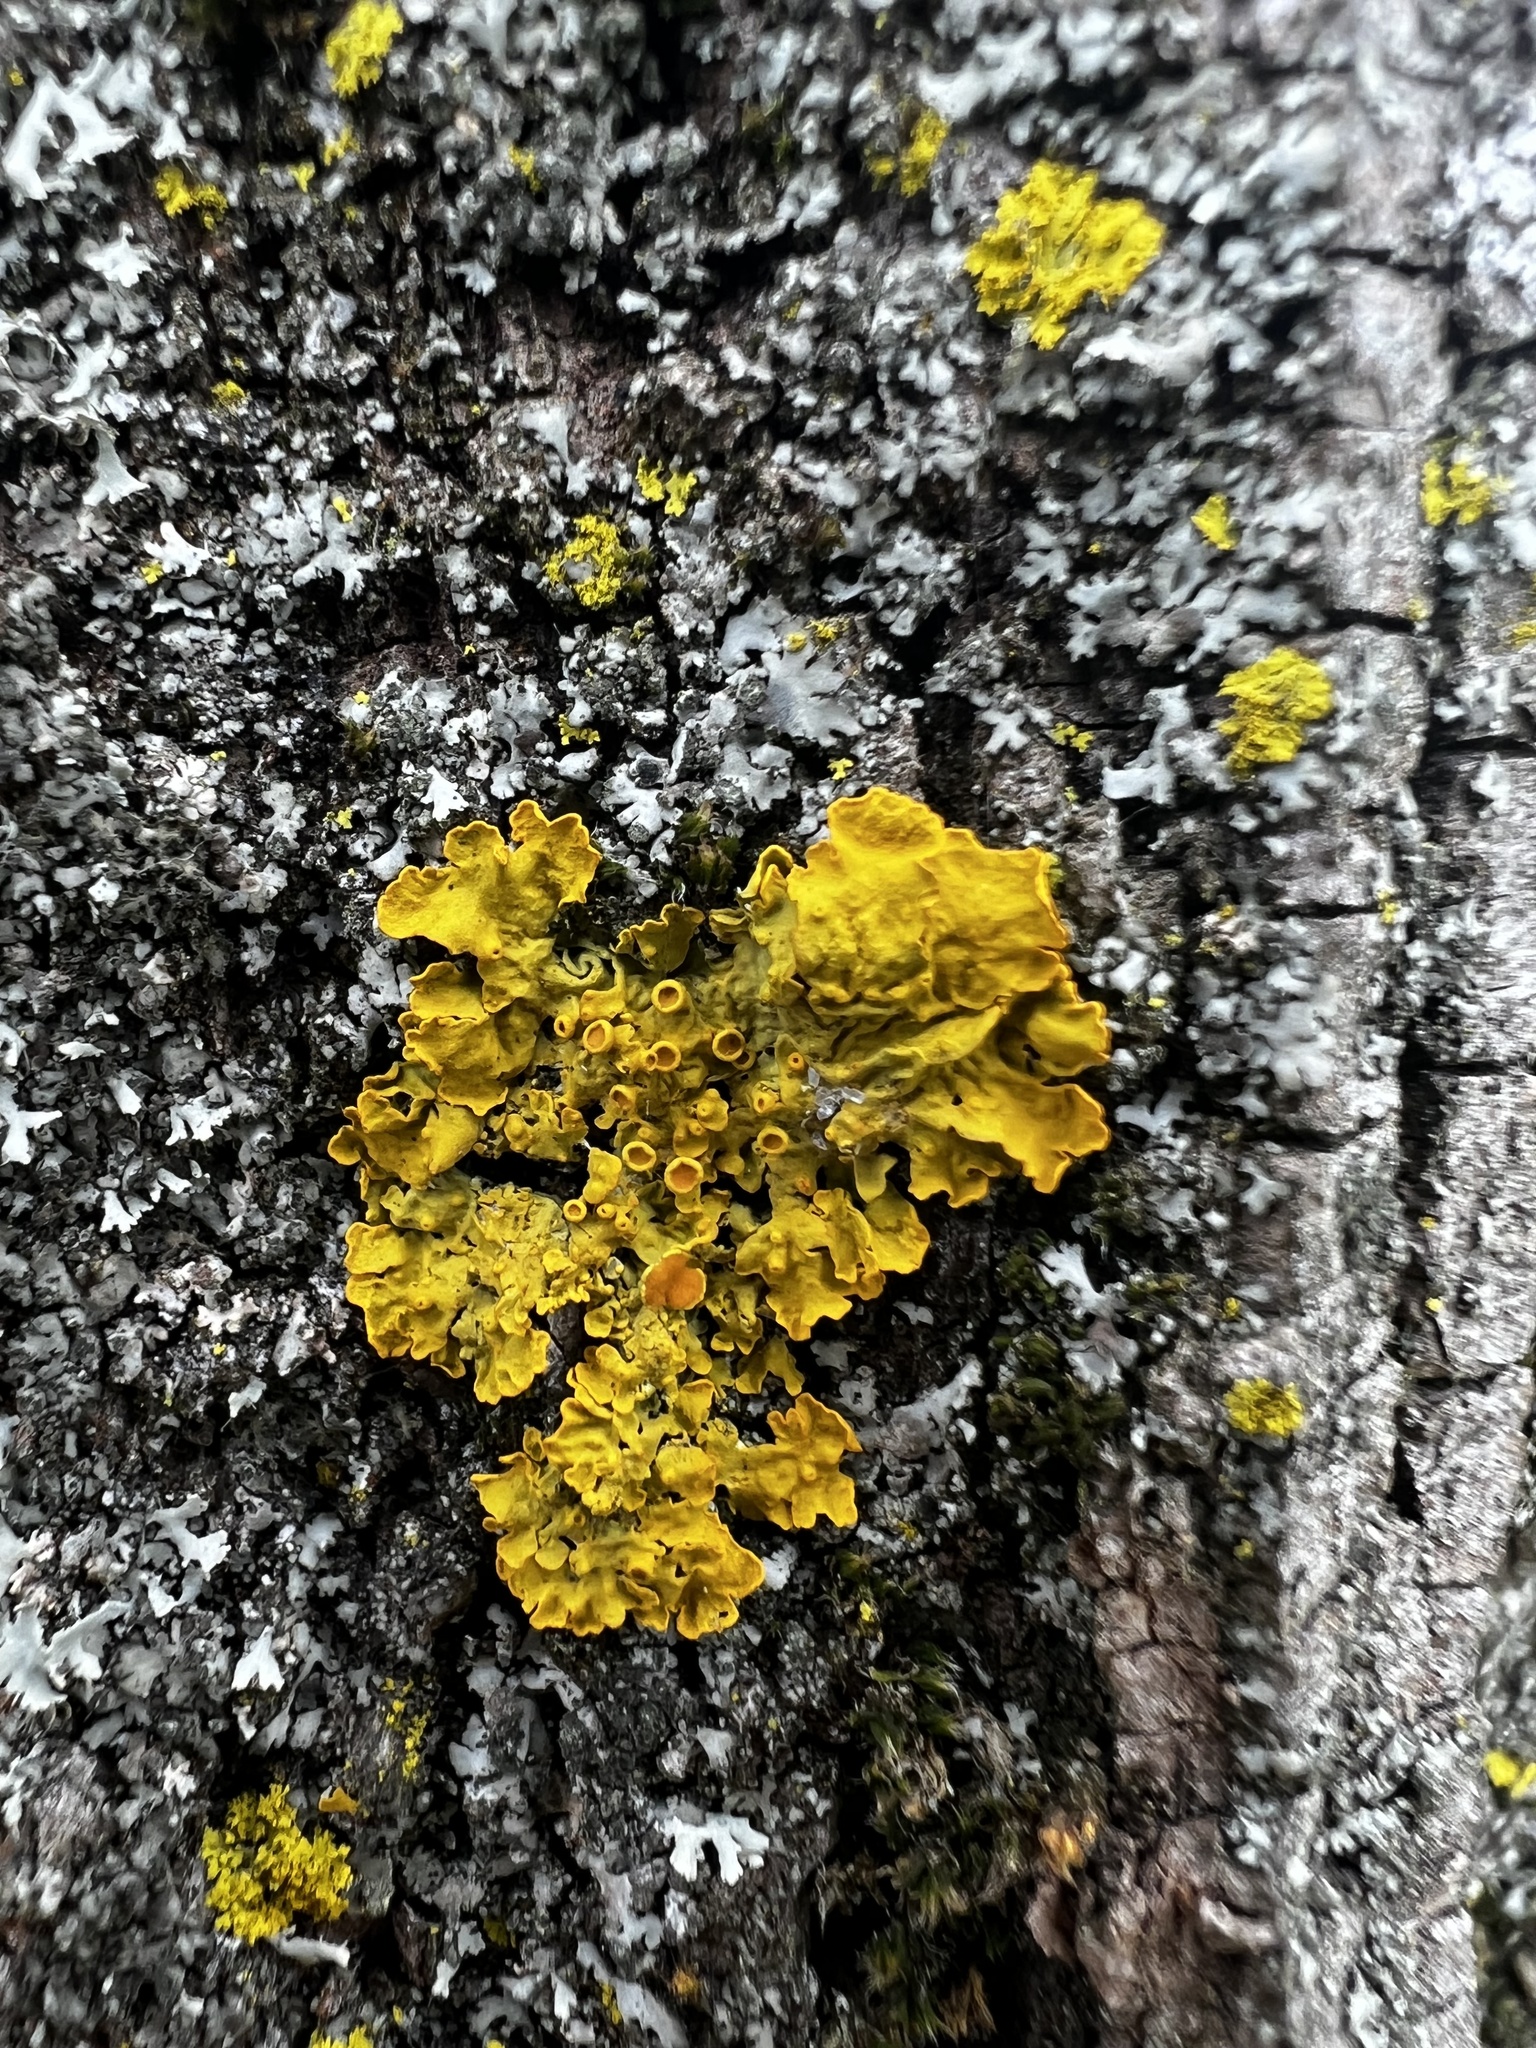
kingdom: Fungi
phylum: Ascomycota
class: Lecanoromycetes
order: Teloschistales
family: Teloschistaceae
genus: Xanthoria
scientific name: Xanthoria parietina
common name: Common orange lichen
